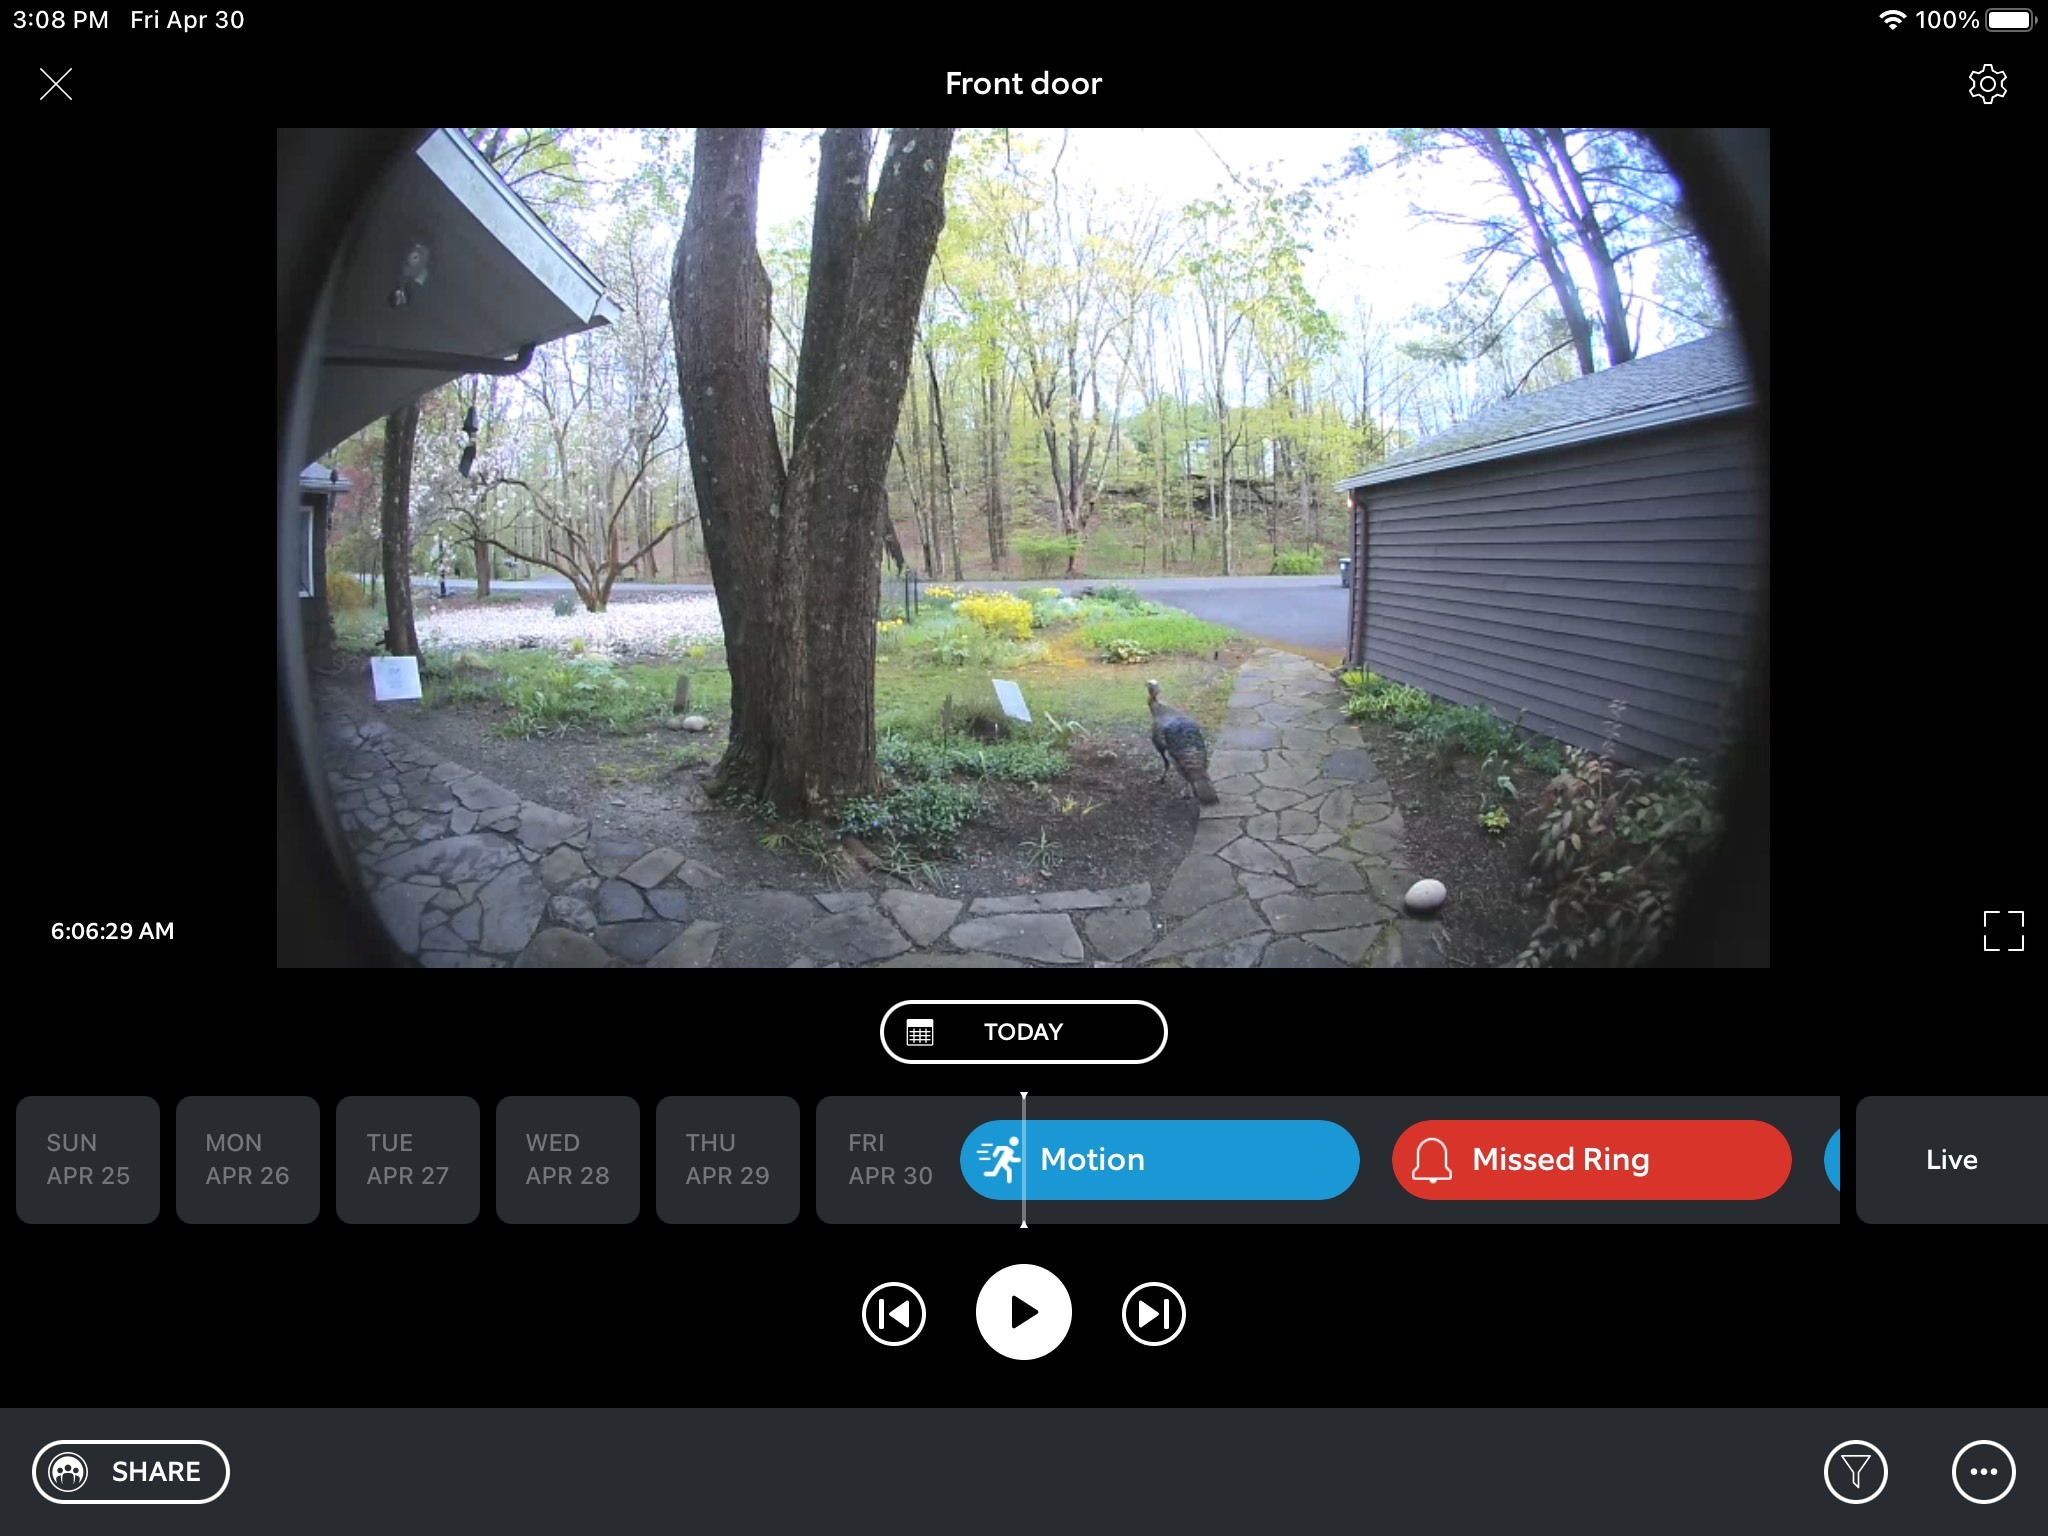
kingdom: Animalia
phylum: Chordata
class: Aves
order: Galliformes
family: Phasianidae
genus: Meleagris
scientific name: Meleagris gallopavo
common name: Wild turkey
